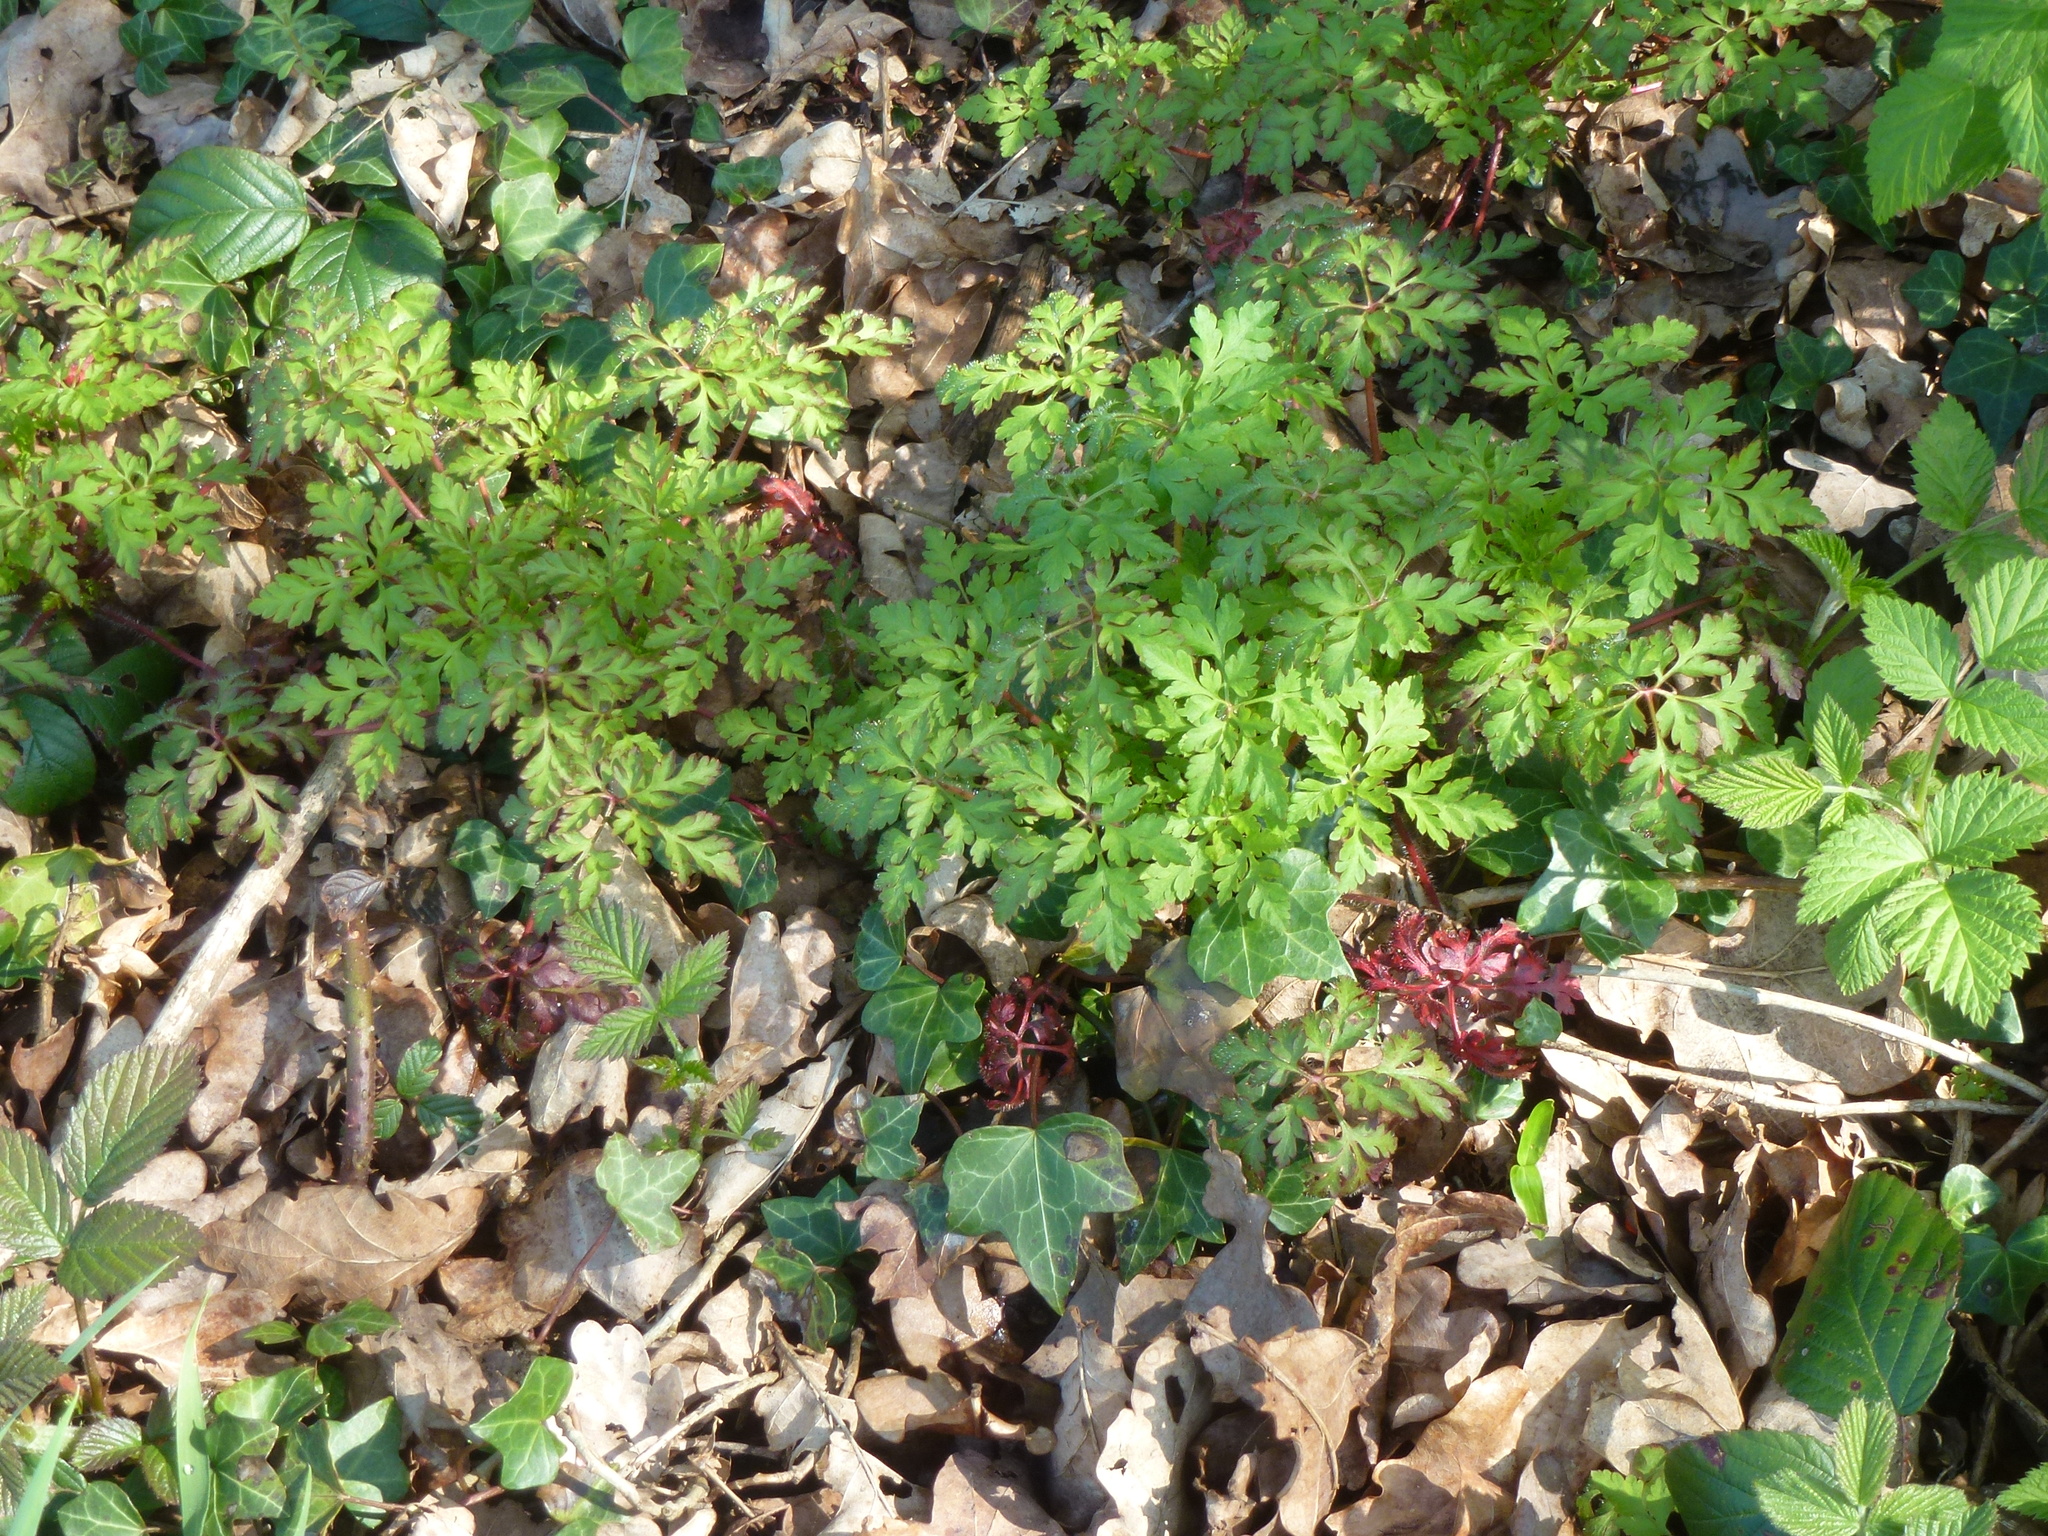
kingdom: Plantae
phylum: Tracheophyta
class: Magnoliopsida
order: Geraniales
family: Geraniaceae
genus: Geranium
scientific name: Geranium robertianum
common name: Herb-robert
